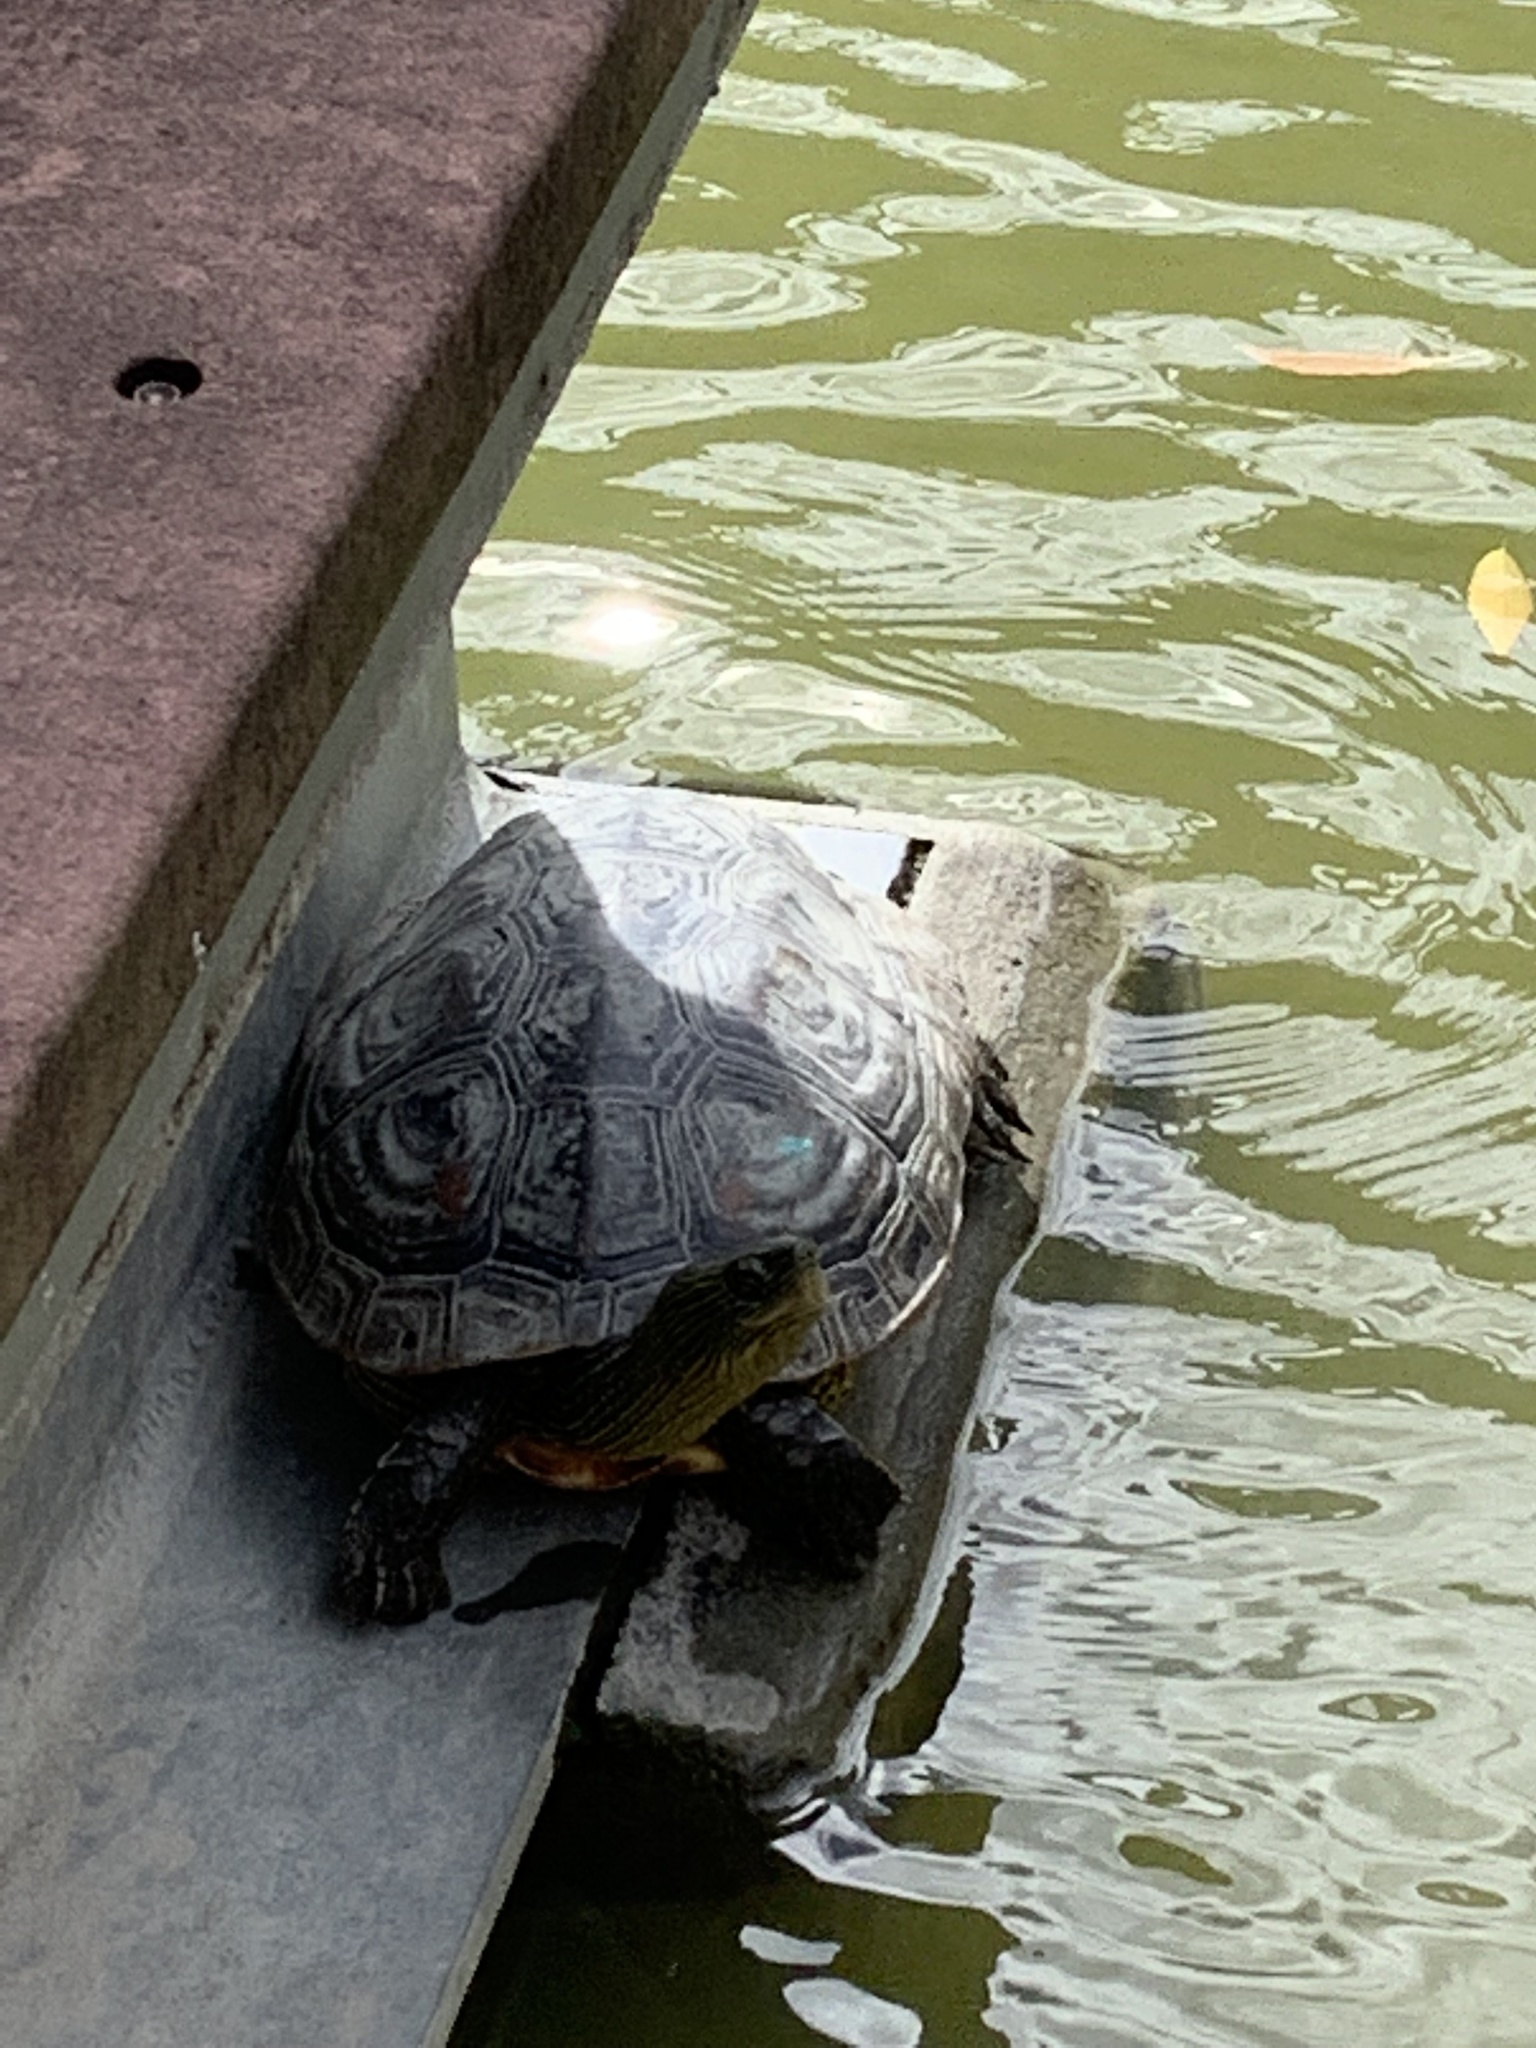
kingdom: Animalia
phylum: Chordata
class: Testudines
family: Geoemydidae
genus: Mauremys
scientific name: Mauremys sinensis
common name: Chinese stripe-necked turtle
